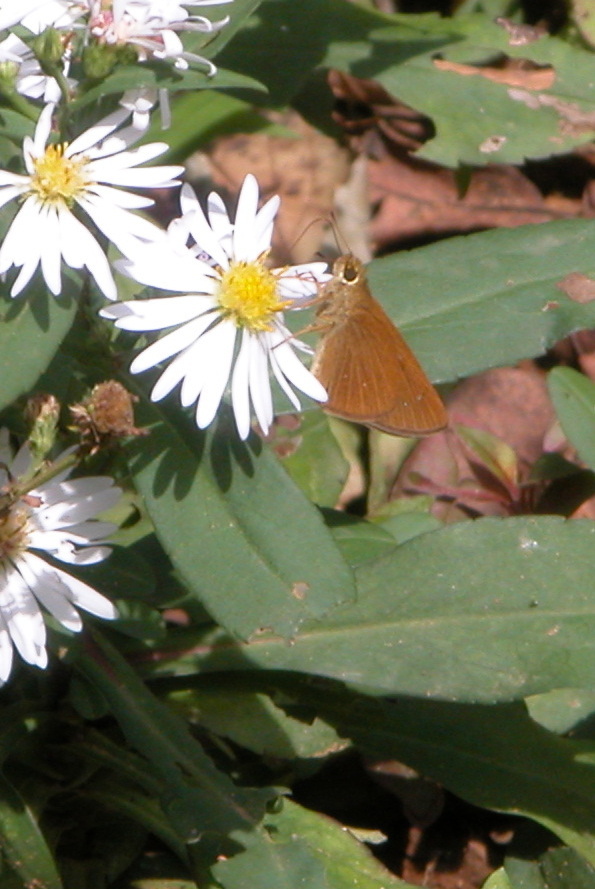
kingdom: Animalia
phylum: Arthropoda
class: Insecta
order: Lepidoptera
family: Hesperiidae
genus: Polytremis
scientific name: Polytremis lubricans
